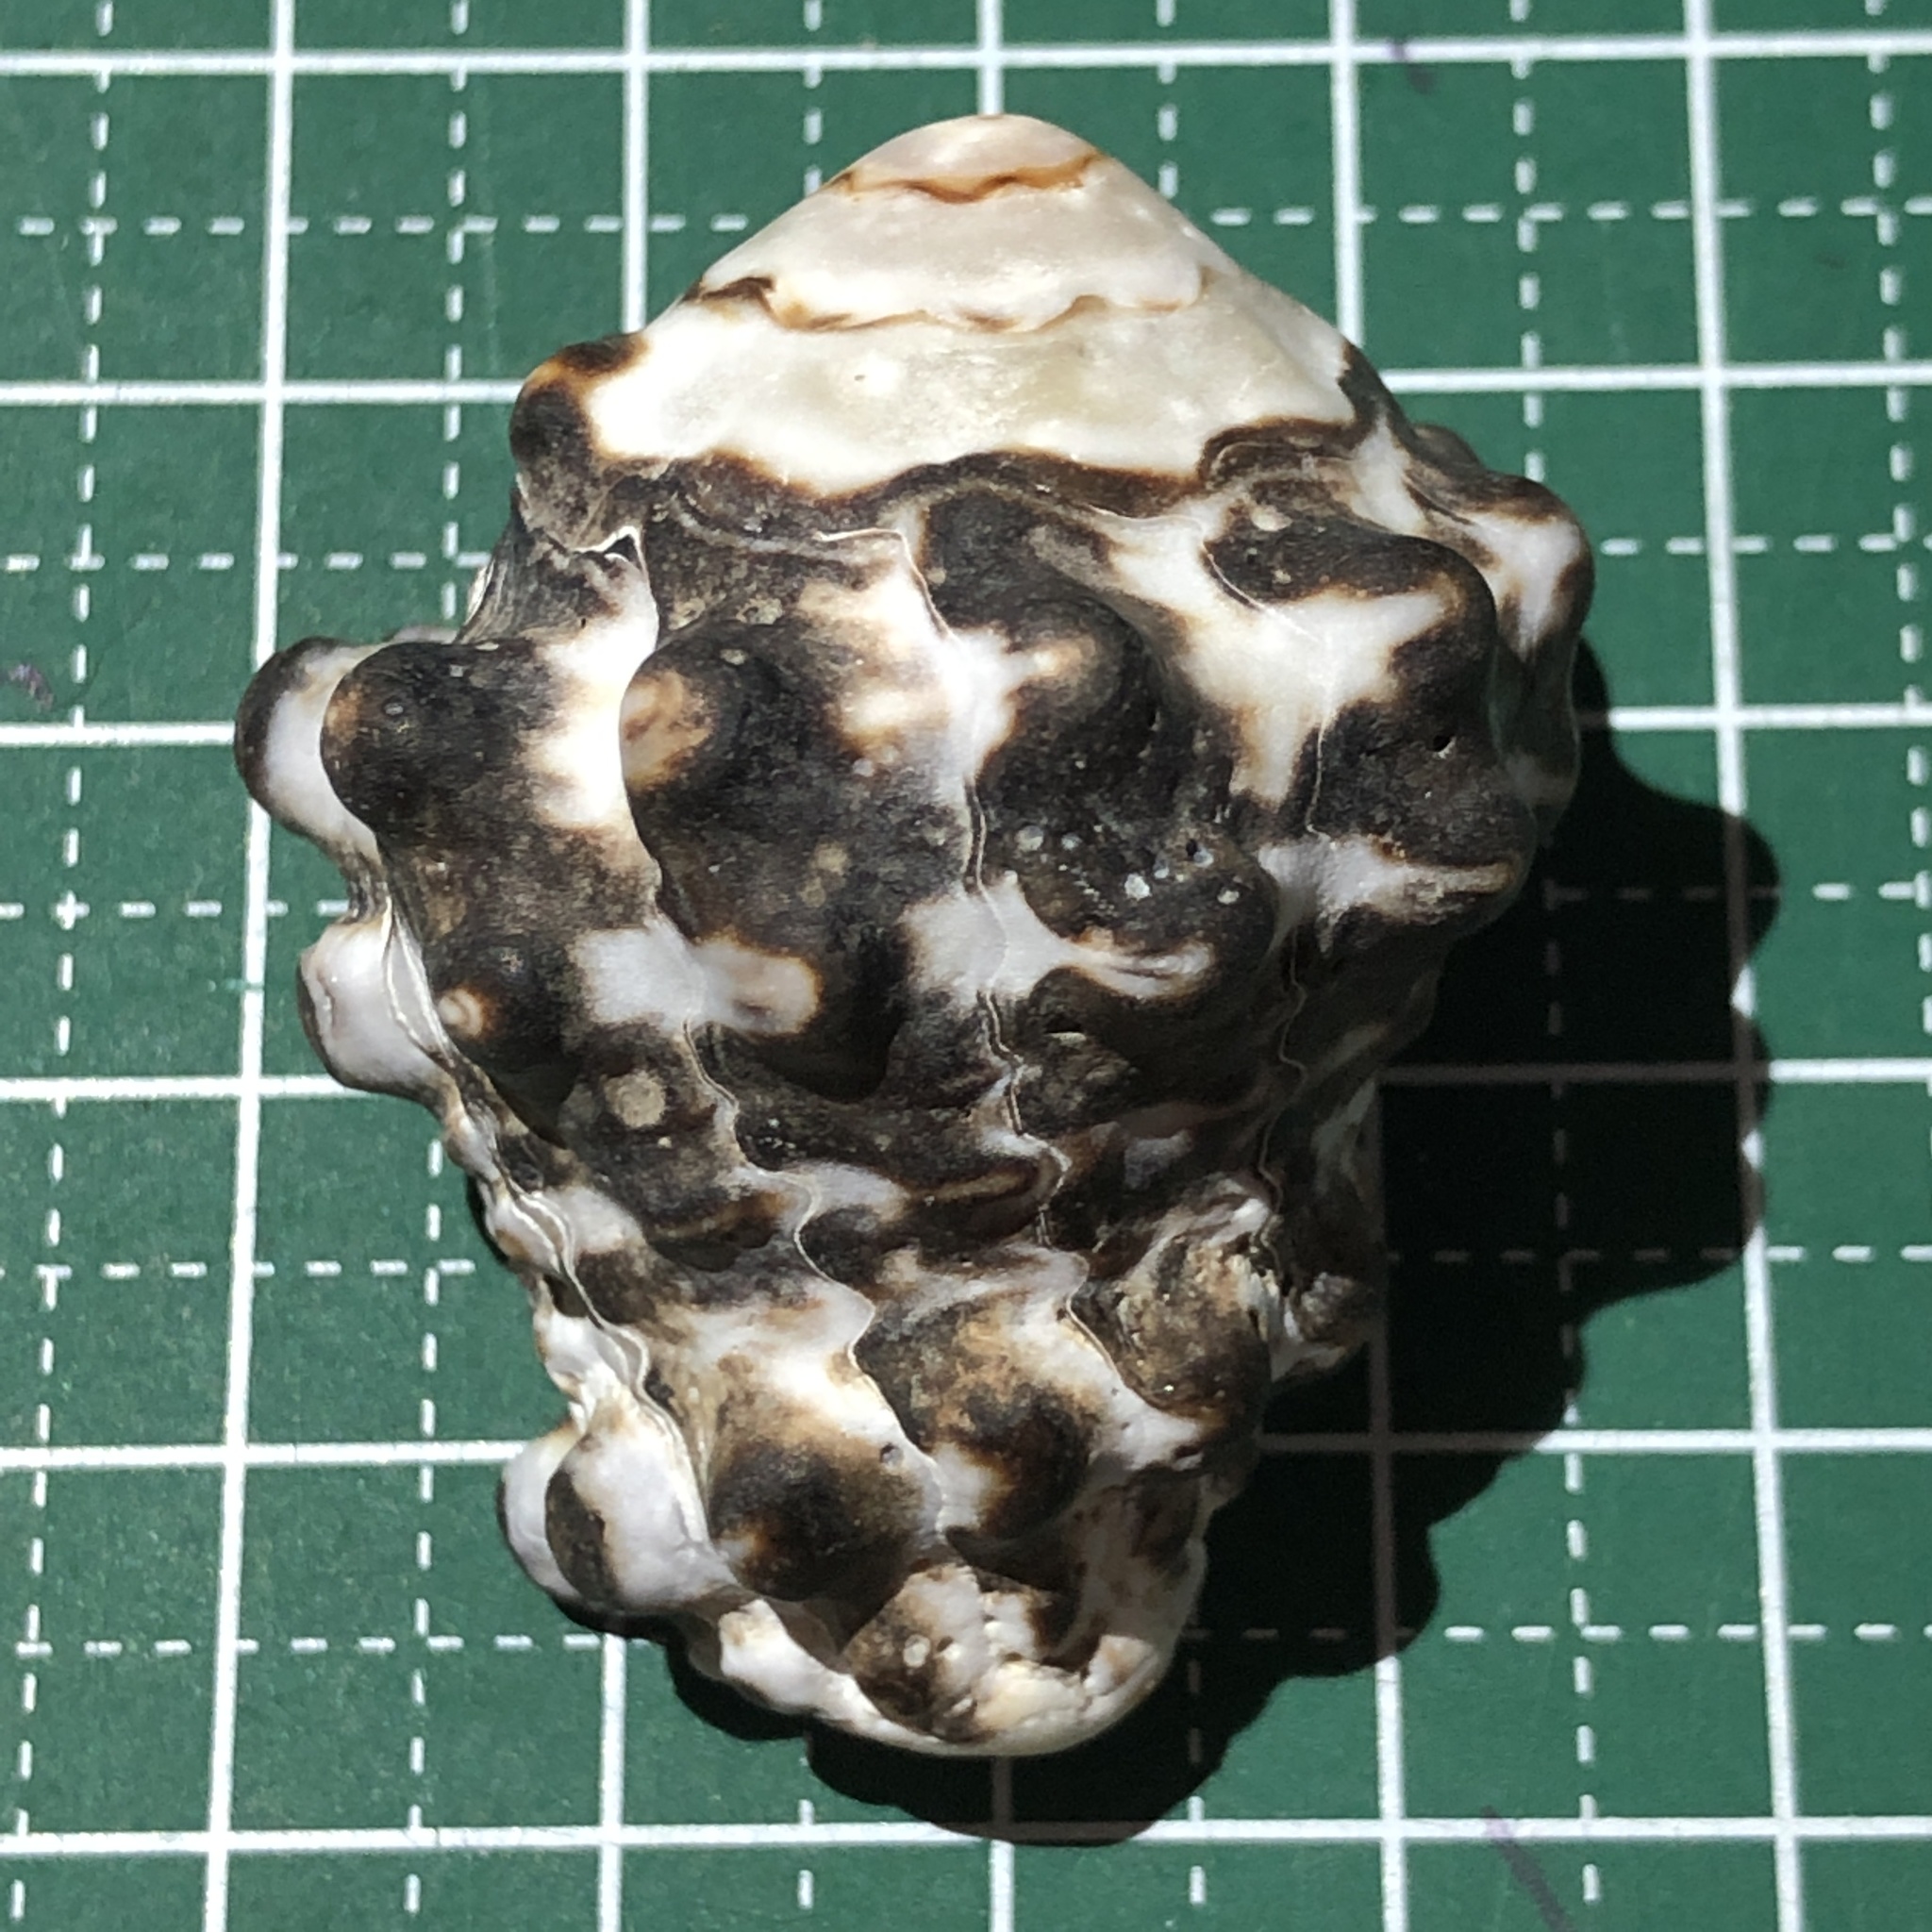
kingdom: Animalia
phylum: Mollusca
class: Gastropoda
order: Neogastropoda
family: Turbinellidae
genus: Vasum
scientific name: Vasum turbinellus
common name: Pacific top vase
